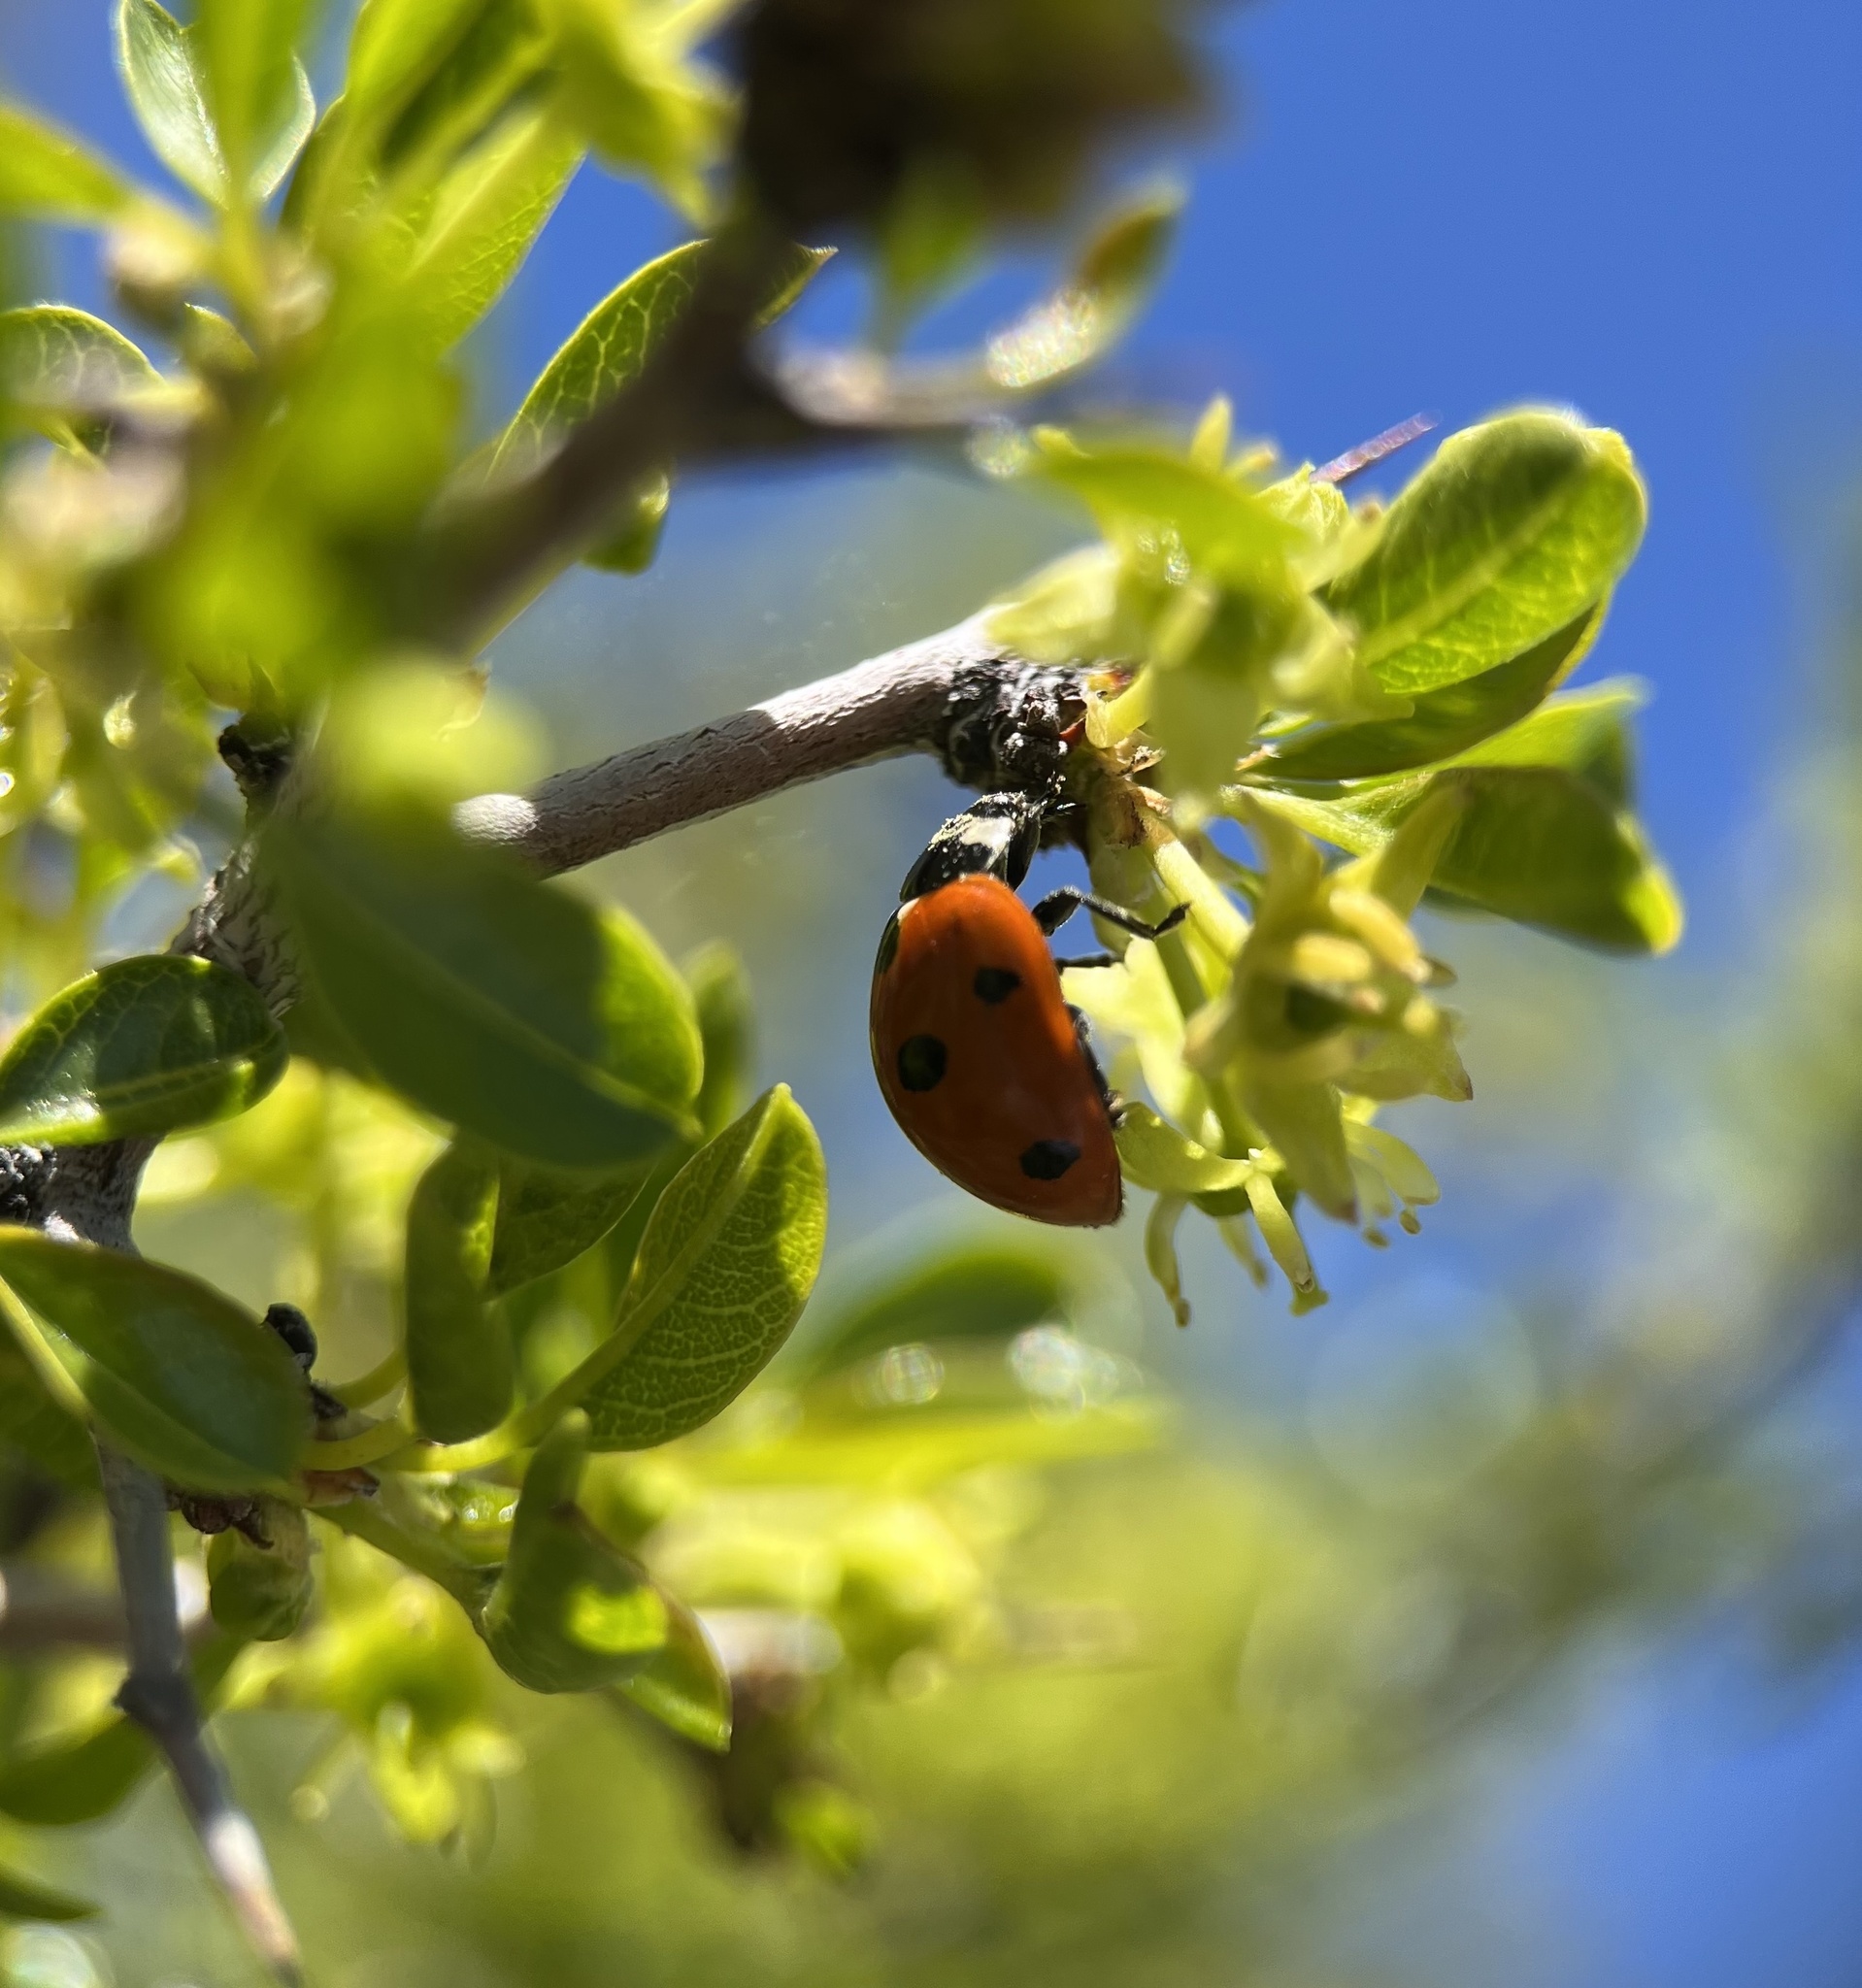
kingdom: Animalia
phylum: Arthropoda
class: Insecta
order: Coleoptera
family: Coccinellidae
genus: Coccinella
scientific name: Coccinella septempunctata
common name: Sevenspotted lady beetle
